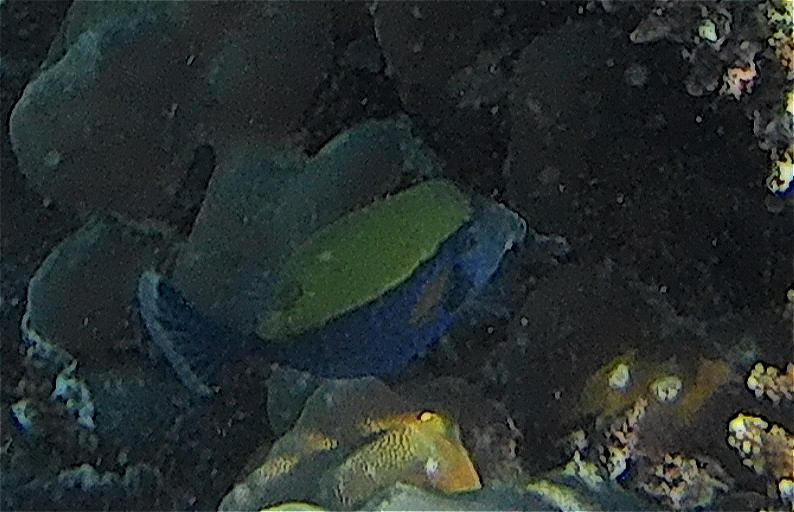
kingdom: Animalia
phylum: Chordata
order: Tetraodontiformes
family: Ostraciidae
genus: Ostracion
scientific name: Ostracion cyanurus
